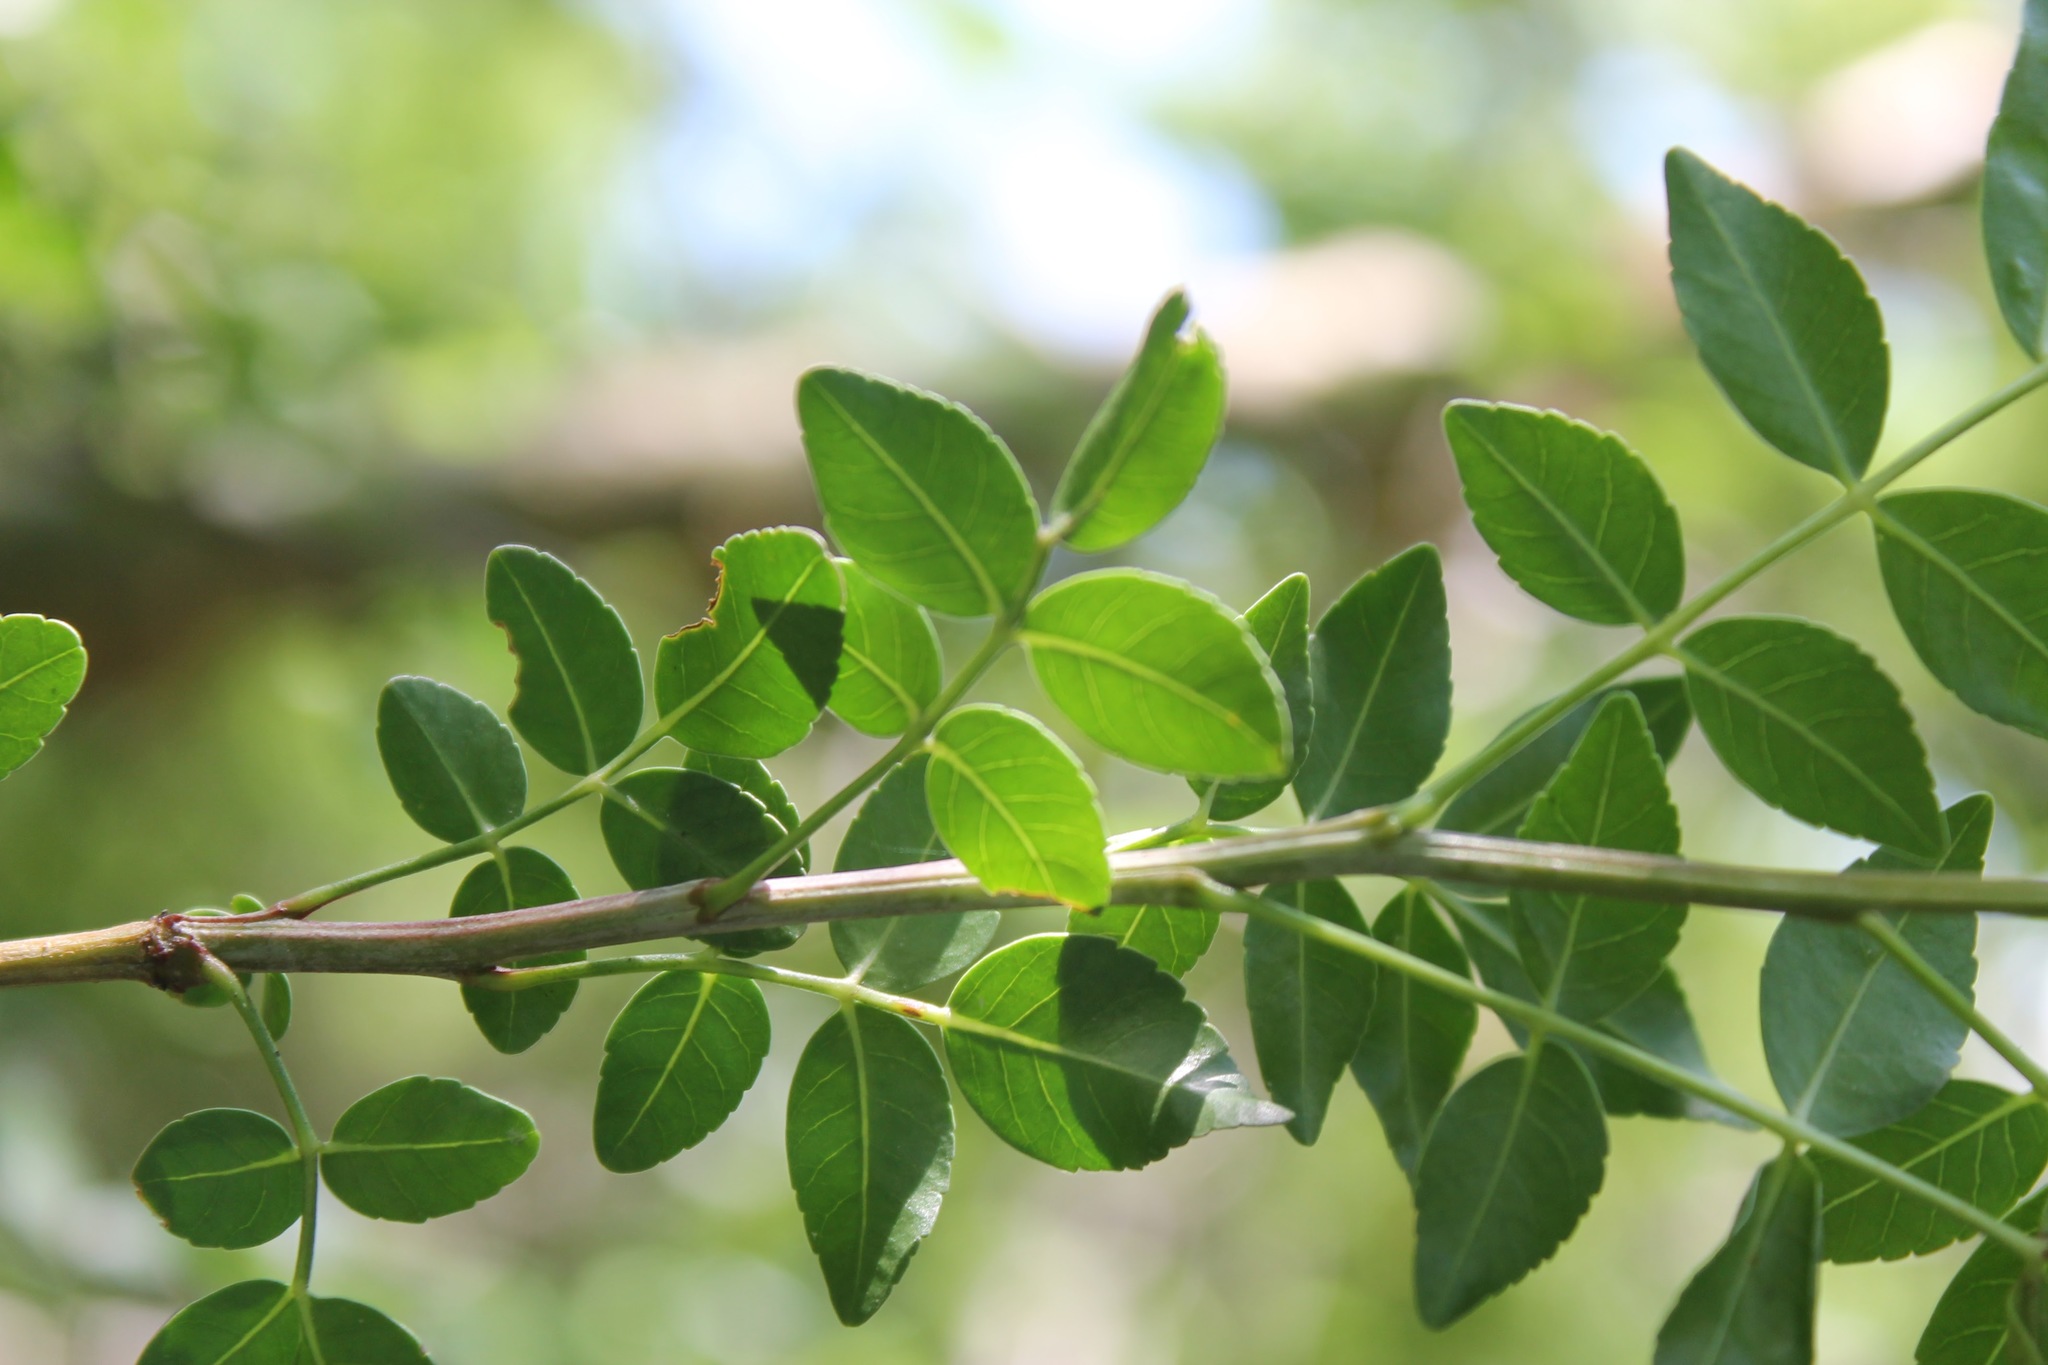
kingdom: Plantae
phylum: Tracheophyta
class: Magnoliopsida
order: Sapindales
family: Burseraceae
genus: Bursera
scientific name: Bursera fagaroides
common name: Elephant tree
